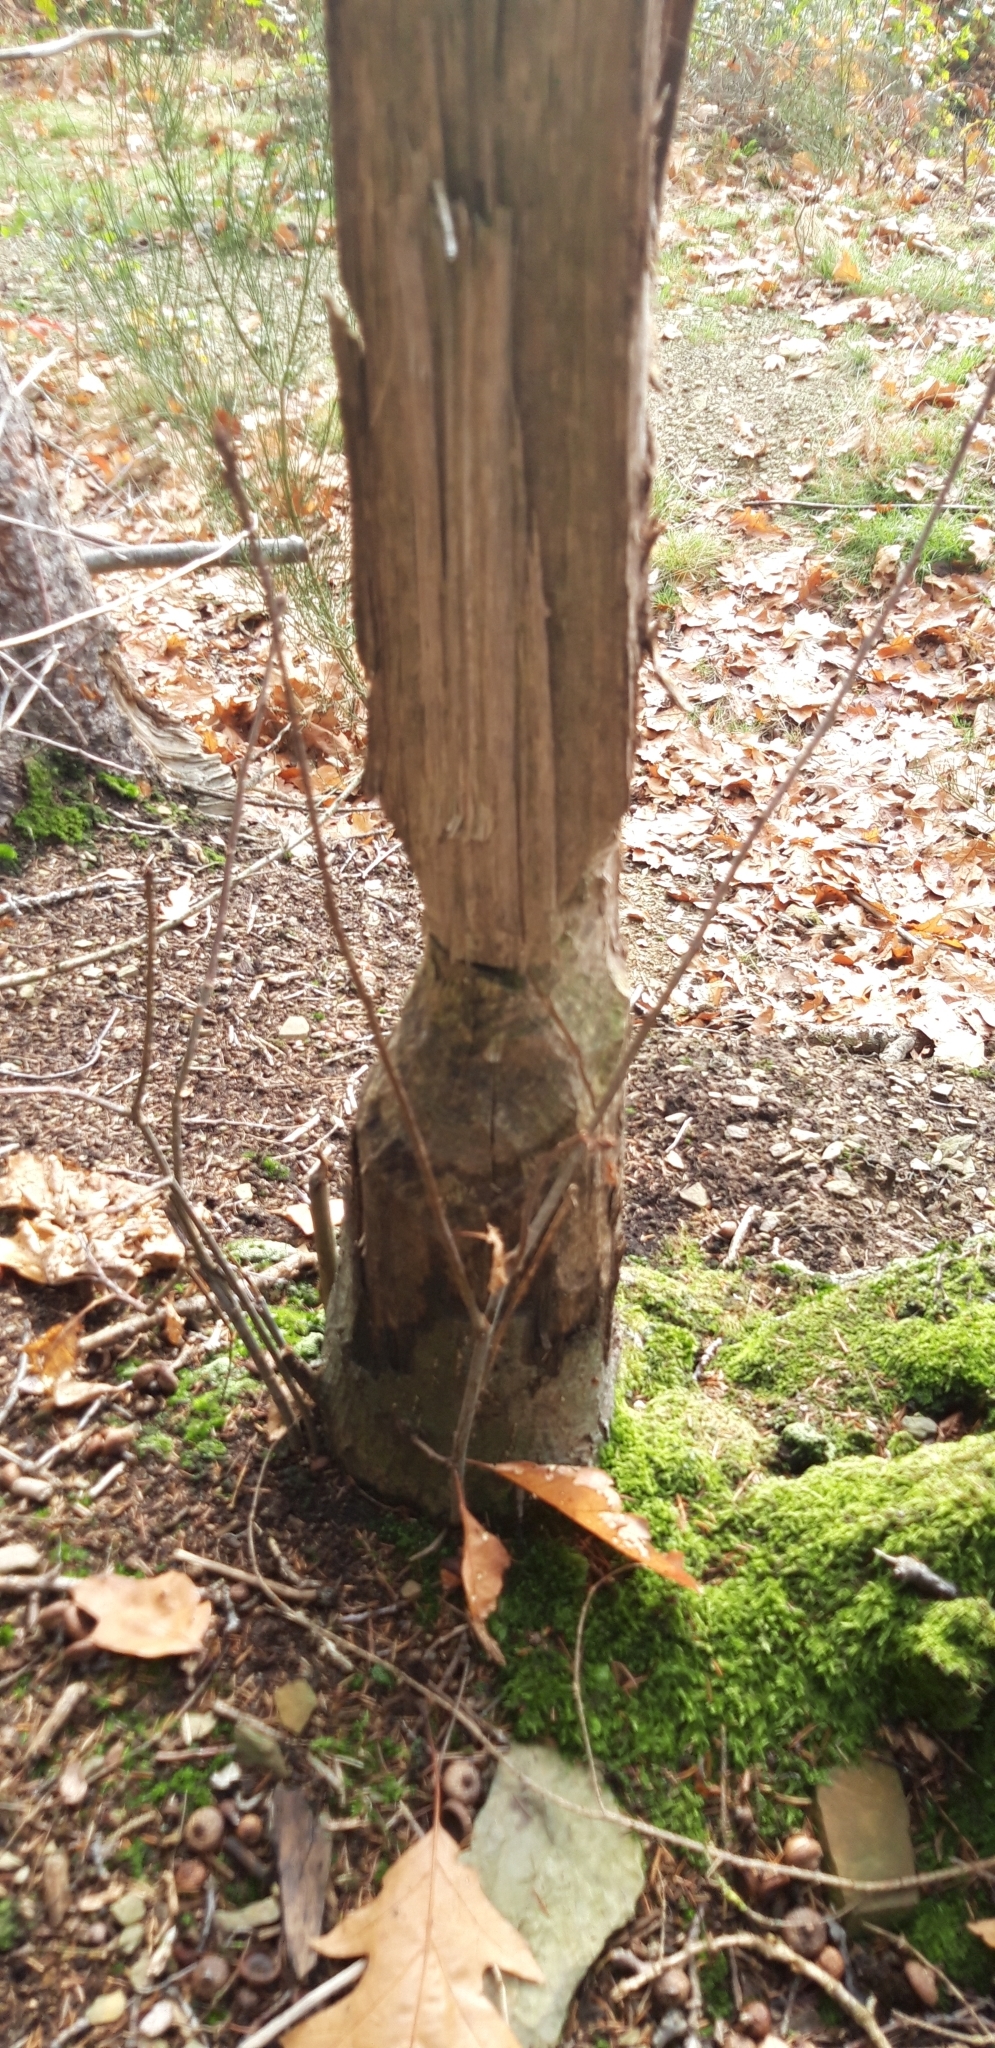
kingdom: Animalia
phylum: Chordata
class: Mammalia
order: Rodentia
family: Castoridae
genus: Castor
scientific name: Castor fiber
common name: Eurasian beaver
